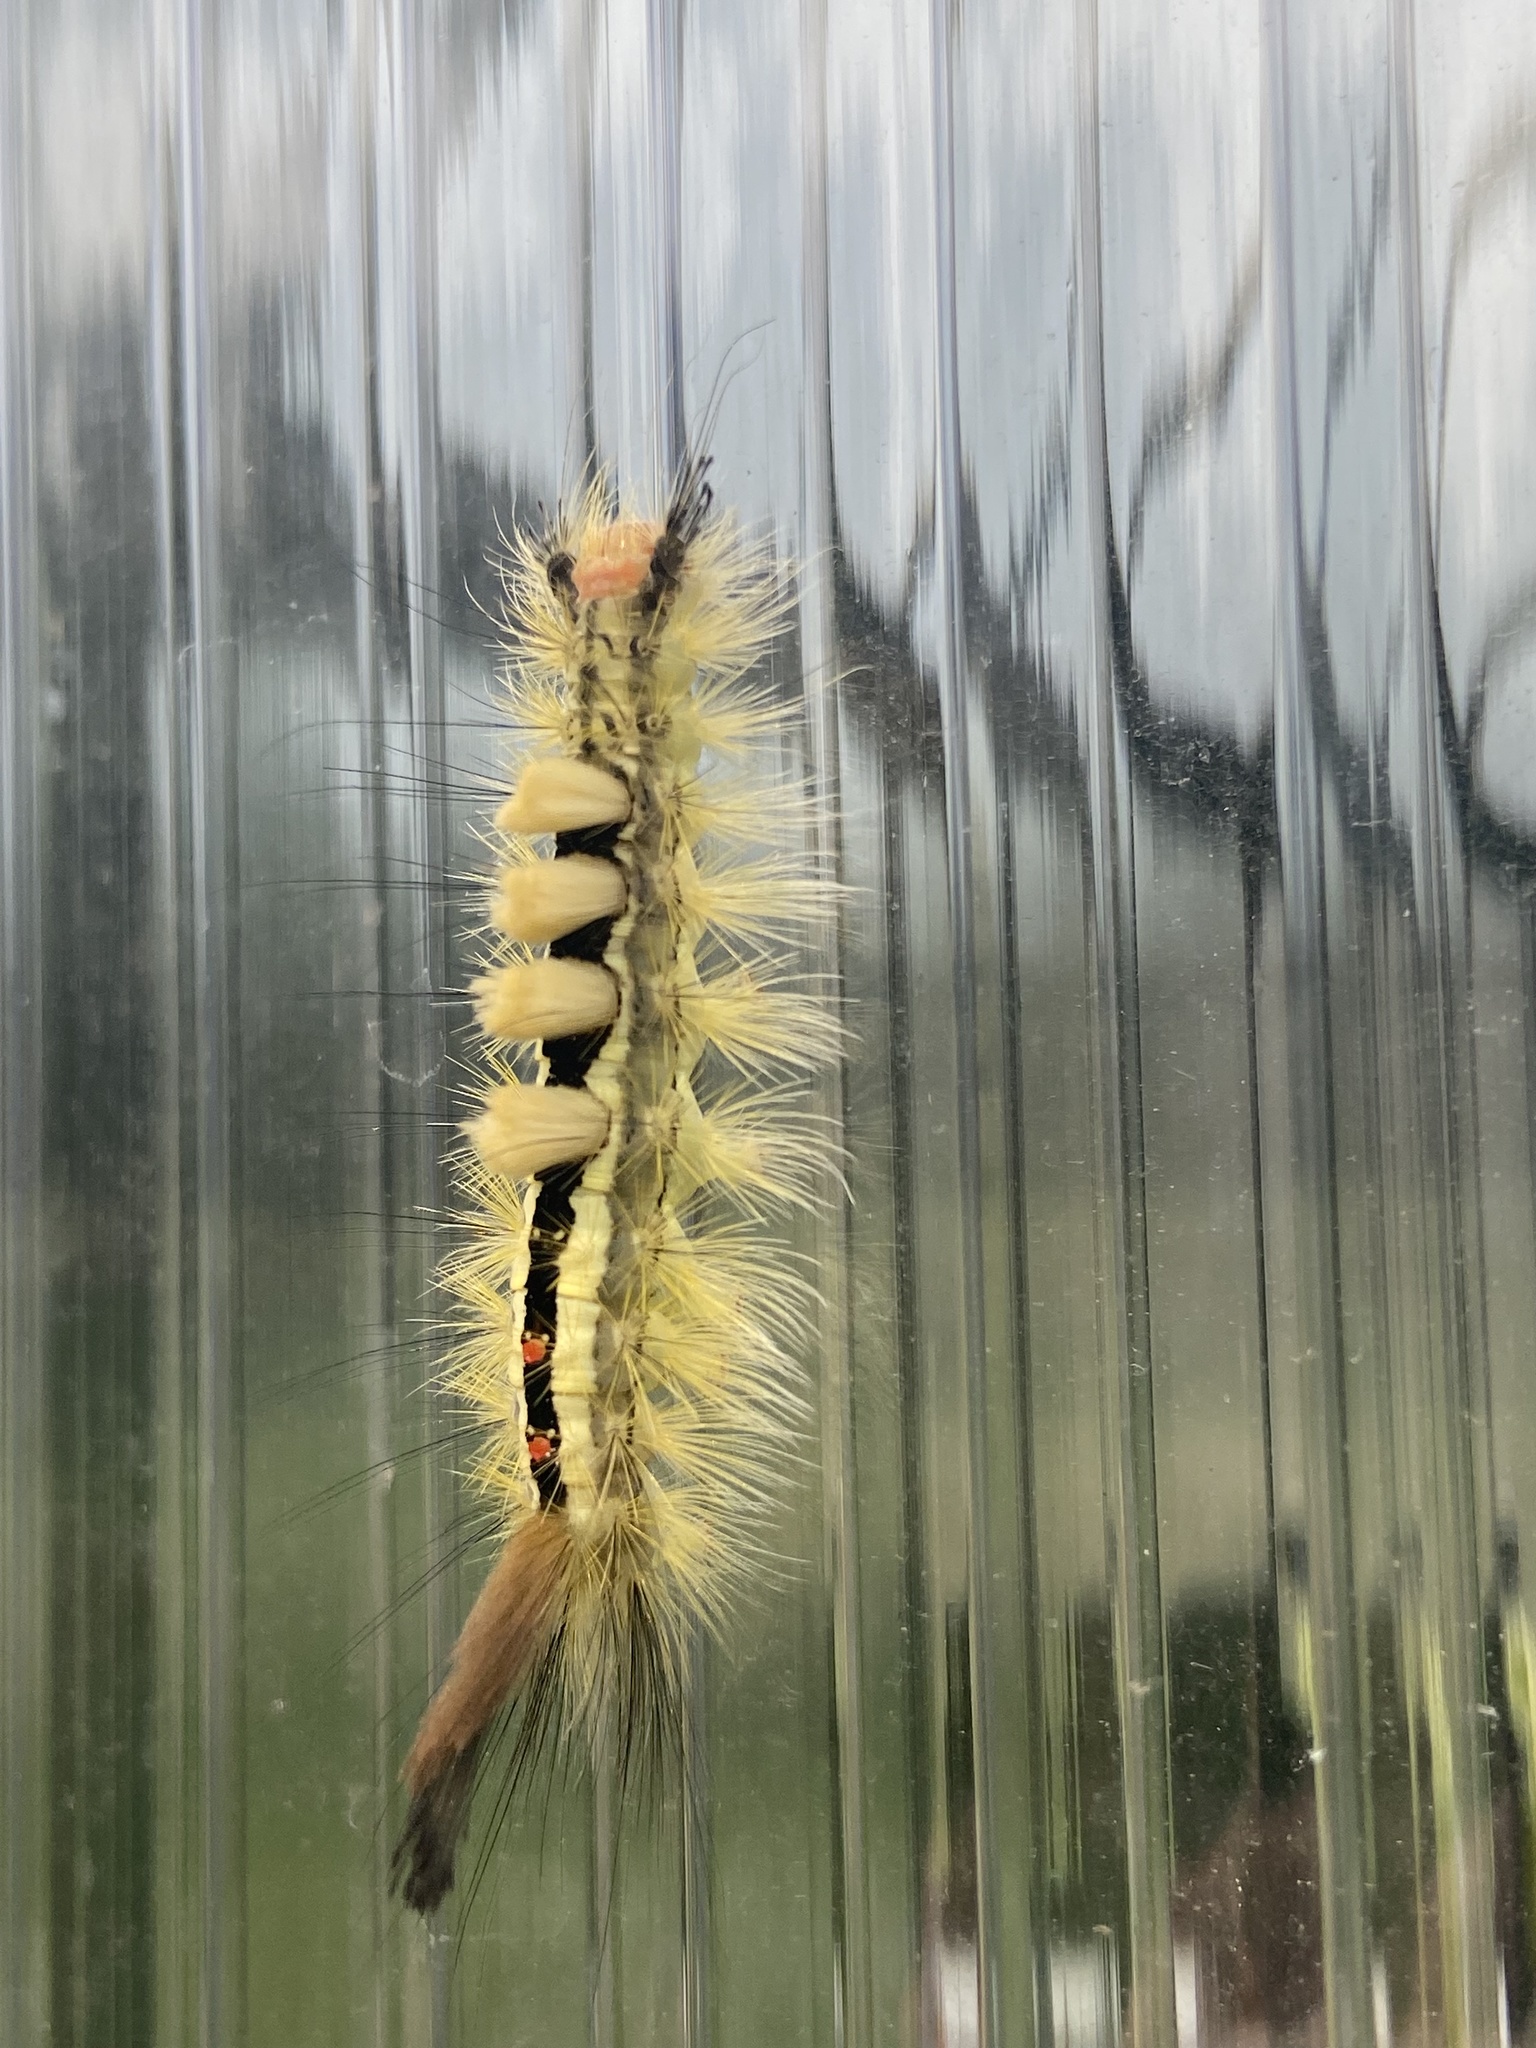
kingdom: Animalia
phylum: Arthropoda
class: Insecta
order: Lepidoptera
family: Erebidae
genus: Orgyia
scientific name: Orgyia leucostigma
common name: White-marked tussock moth
